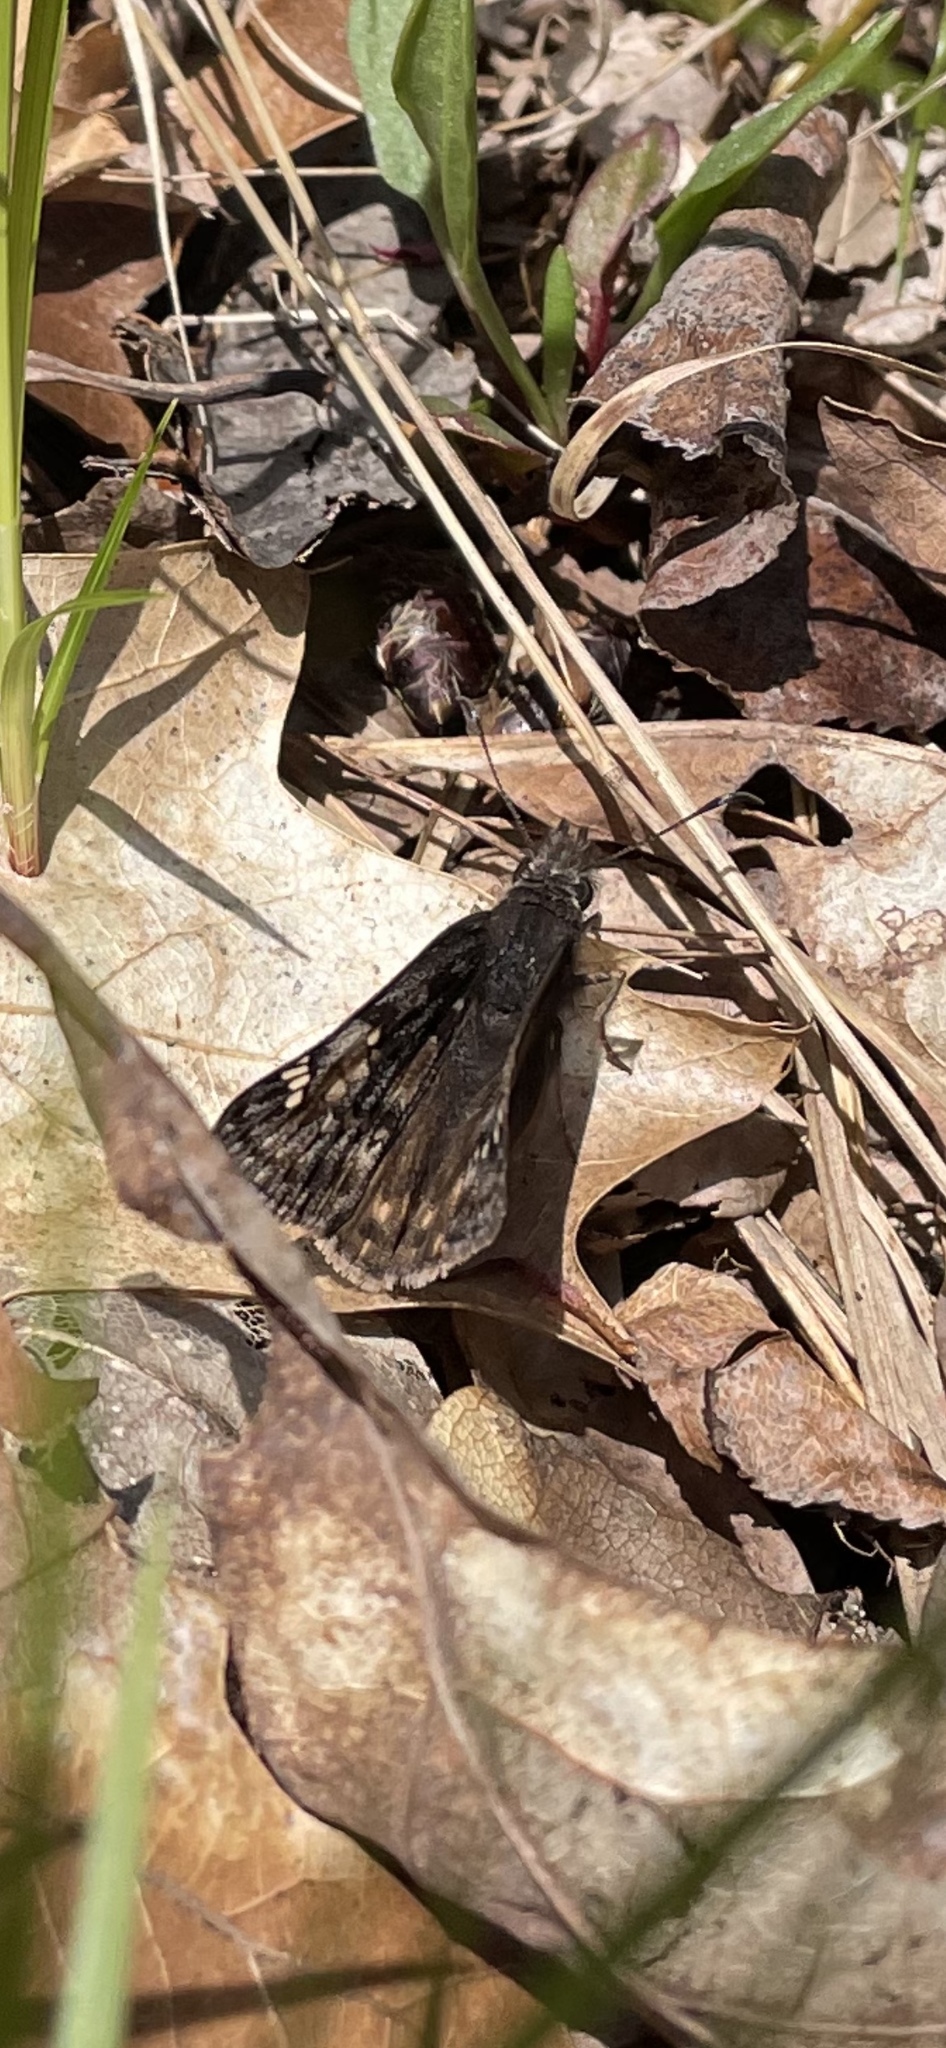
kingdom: Animalia
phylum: Arthropoda
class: Insecta
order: Lepidoptera
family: Hesperiidae
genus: Erynnis
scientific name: Erynnis juvenalis
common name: Juvenal's duskywing
